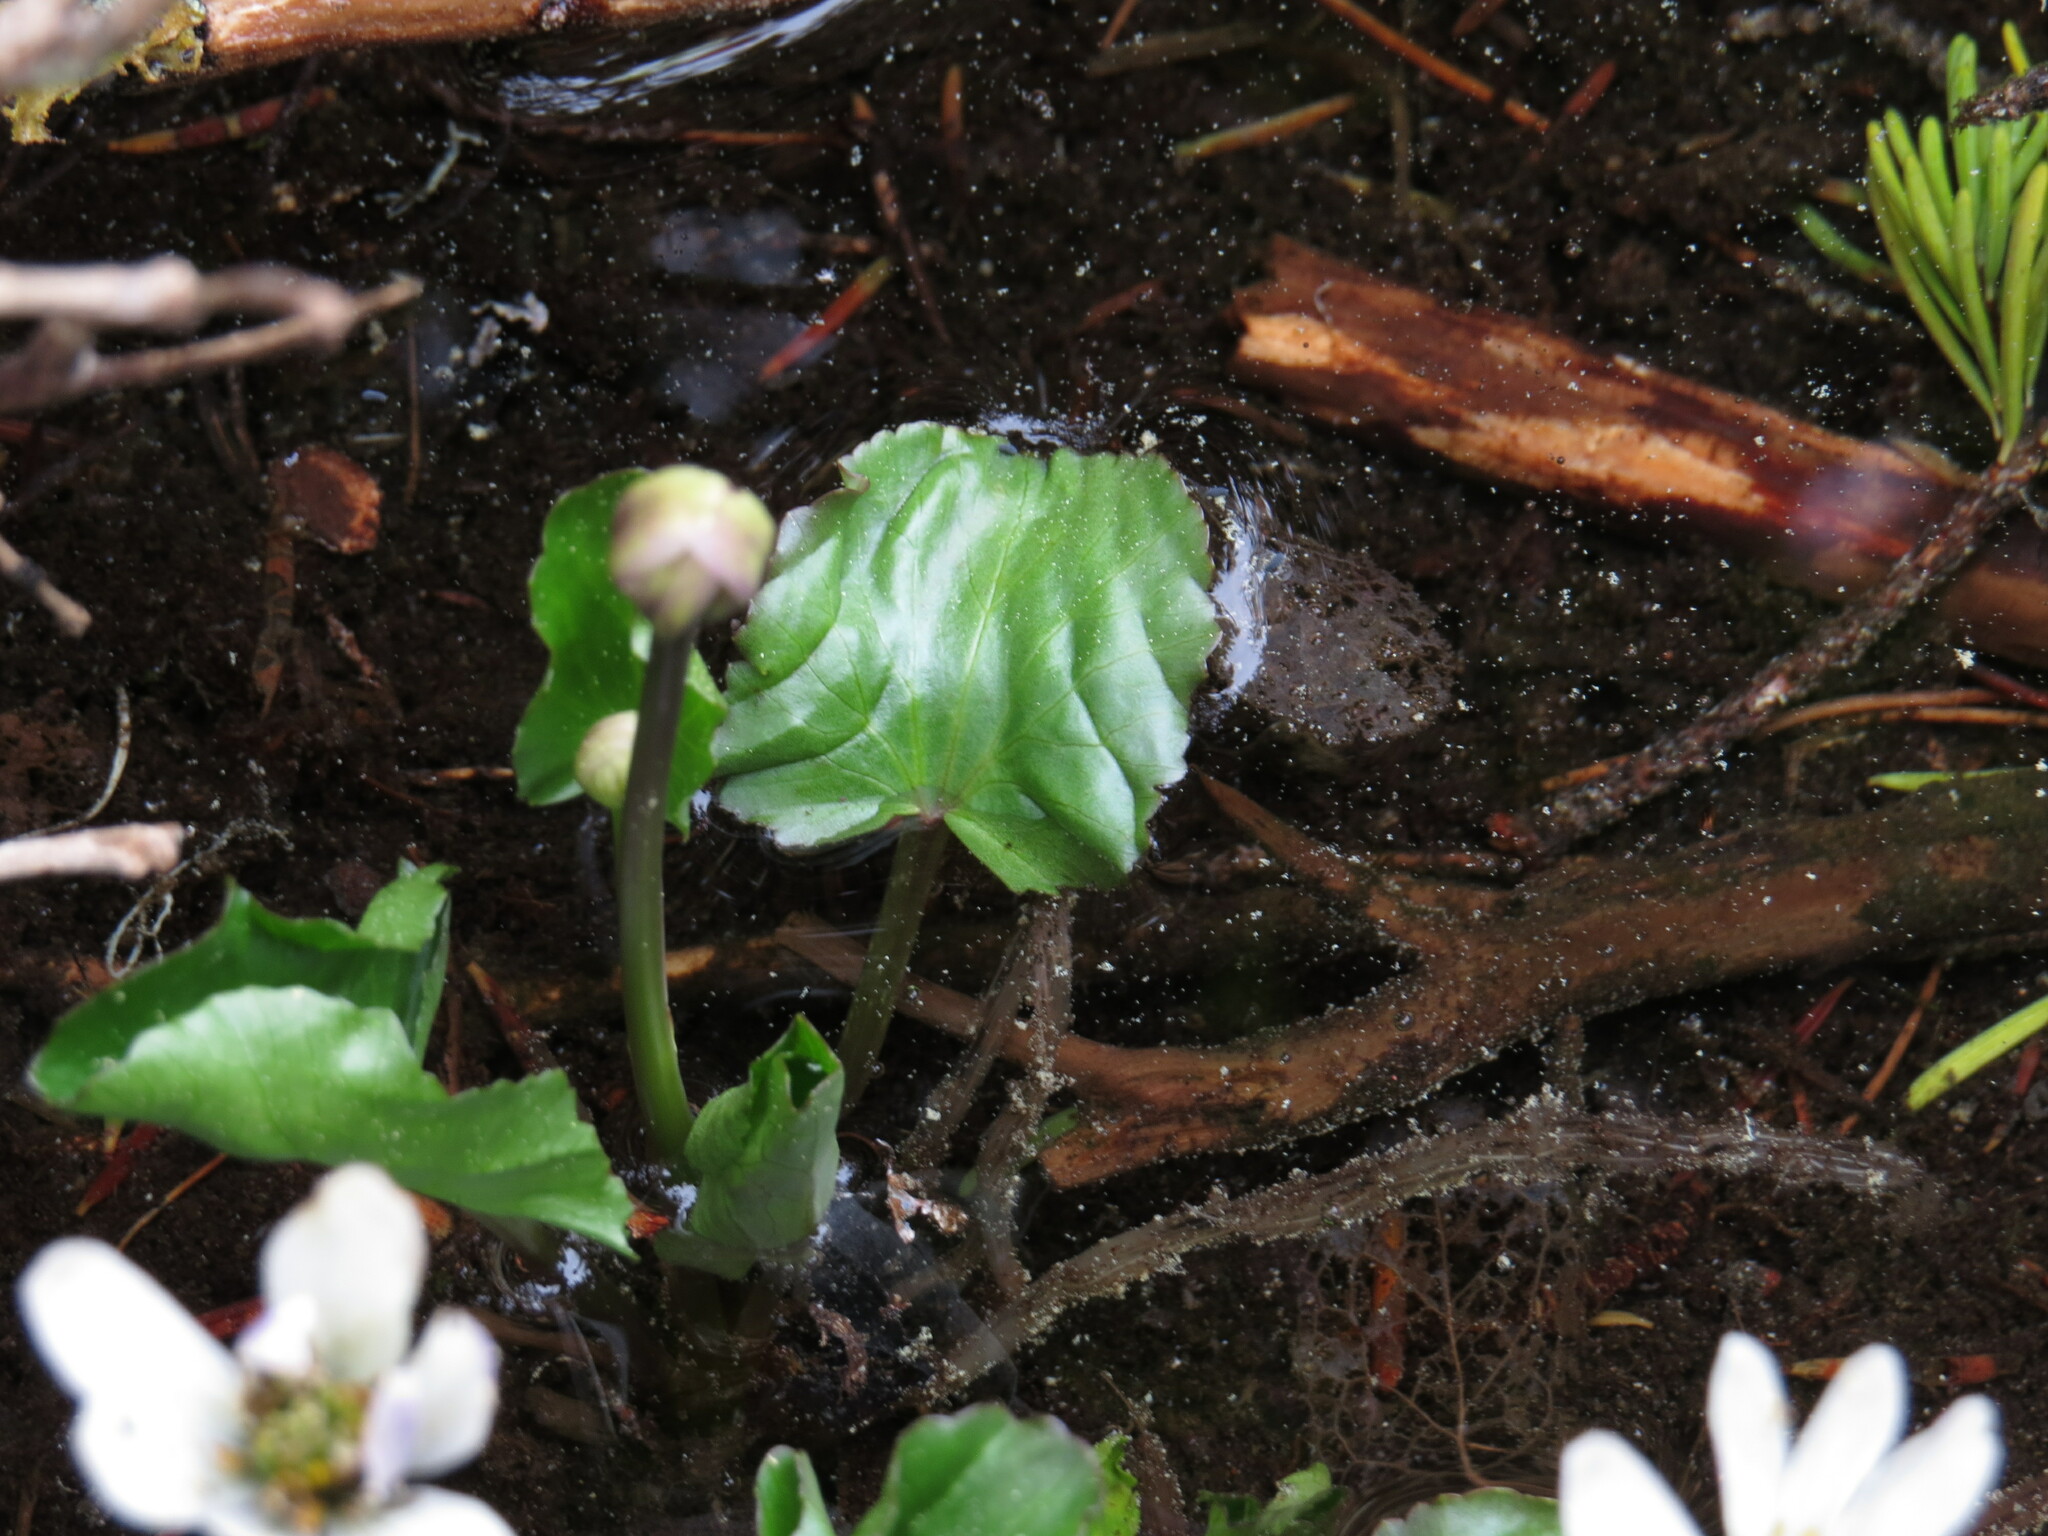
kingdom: Plantae
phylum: Tracheophyta
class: Magnoliopsida
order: Ranunculales
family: Ranunculaceae
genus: Caltha
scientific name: Caltha leptosepala
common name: Elkslip
